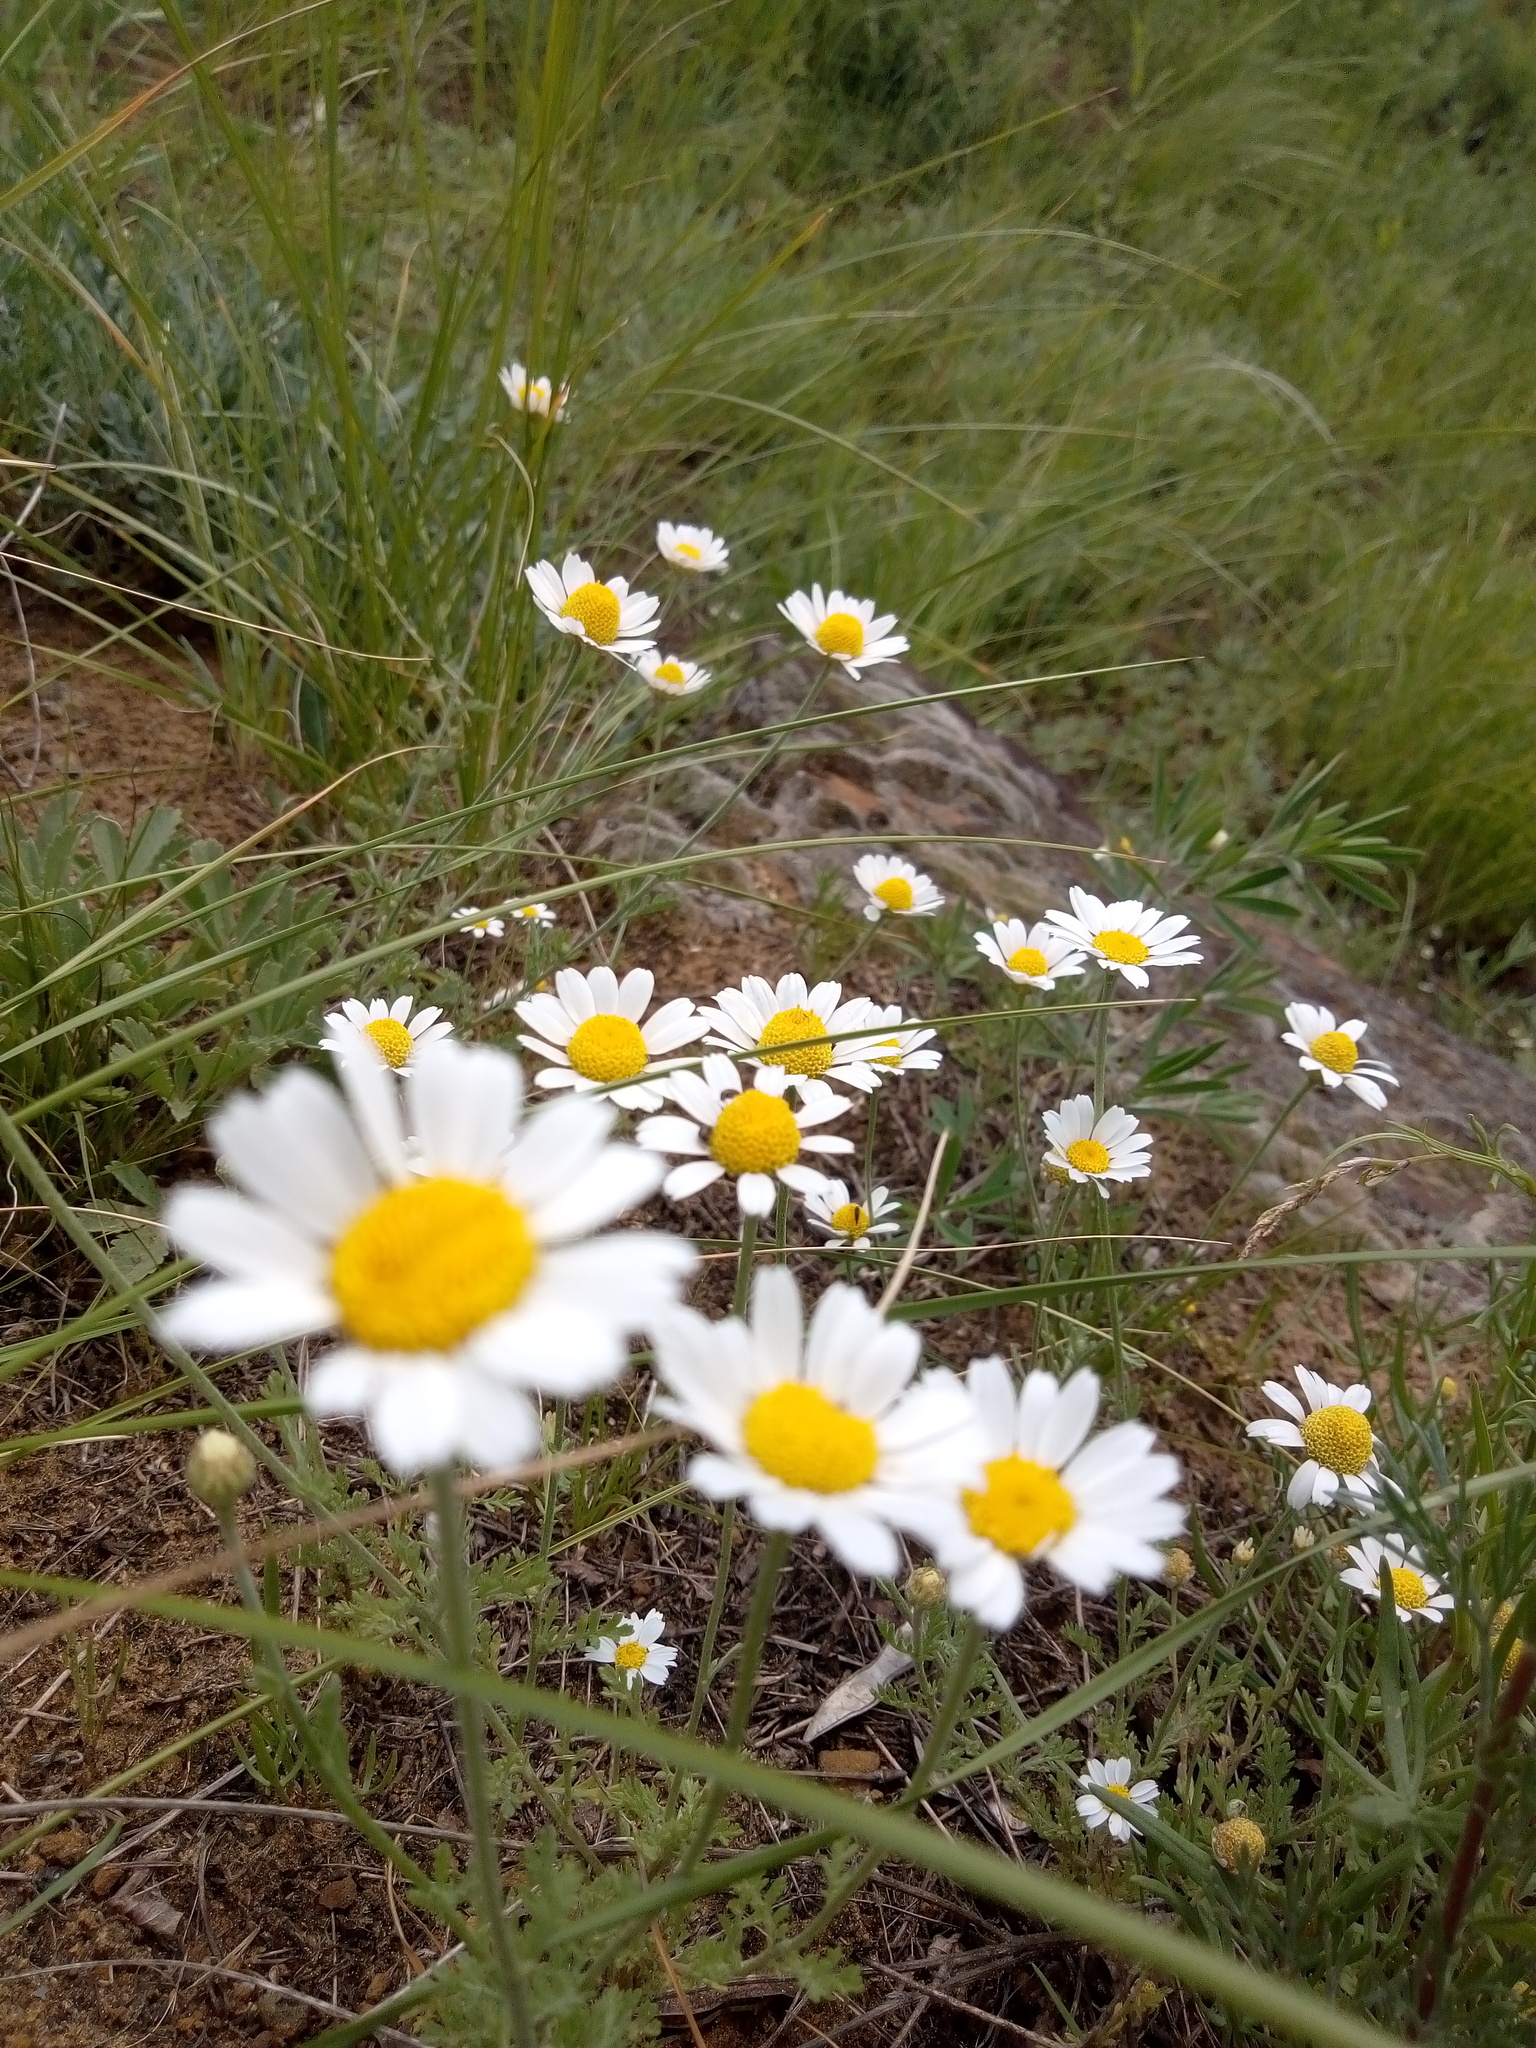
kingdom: Plantae
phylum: Tracheophyta
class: Magnoliopsida
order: Asterales
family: Asteraceae
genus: Anthemis
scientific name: Anthemis ruthenica
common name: Eastern chamomile
